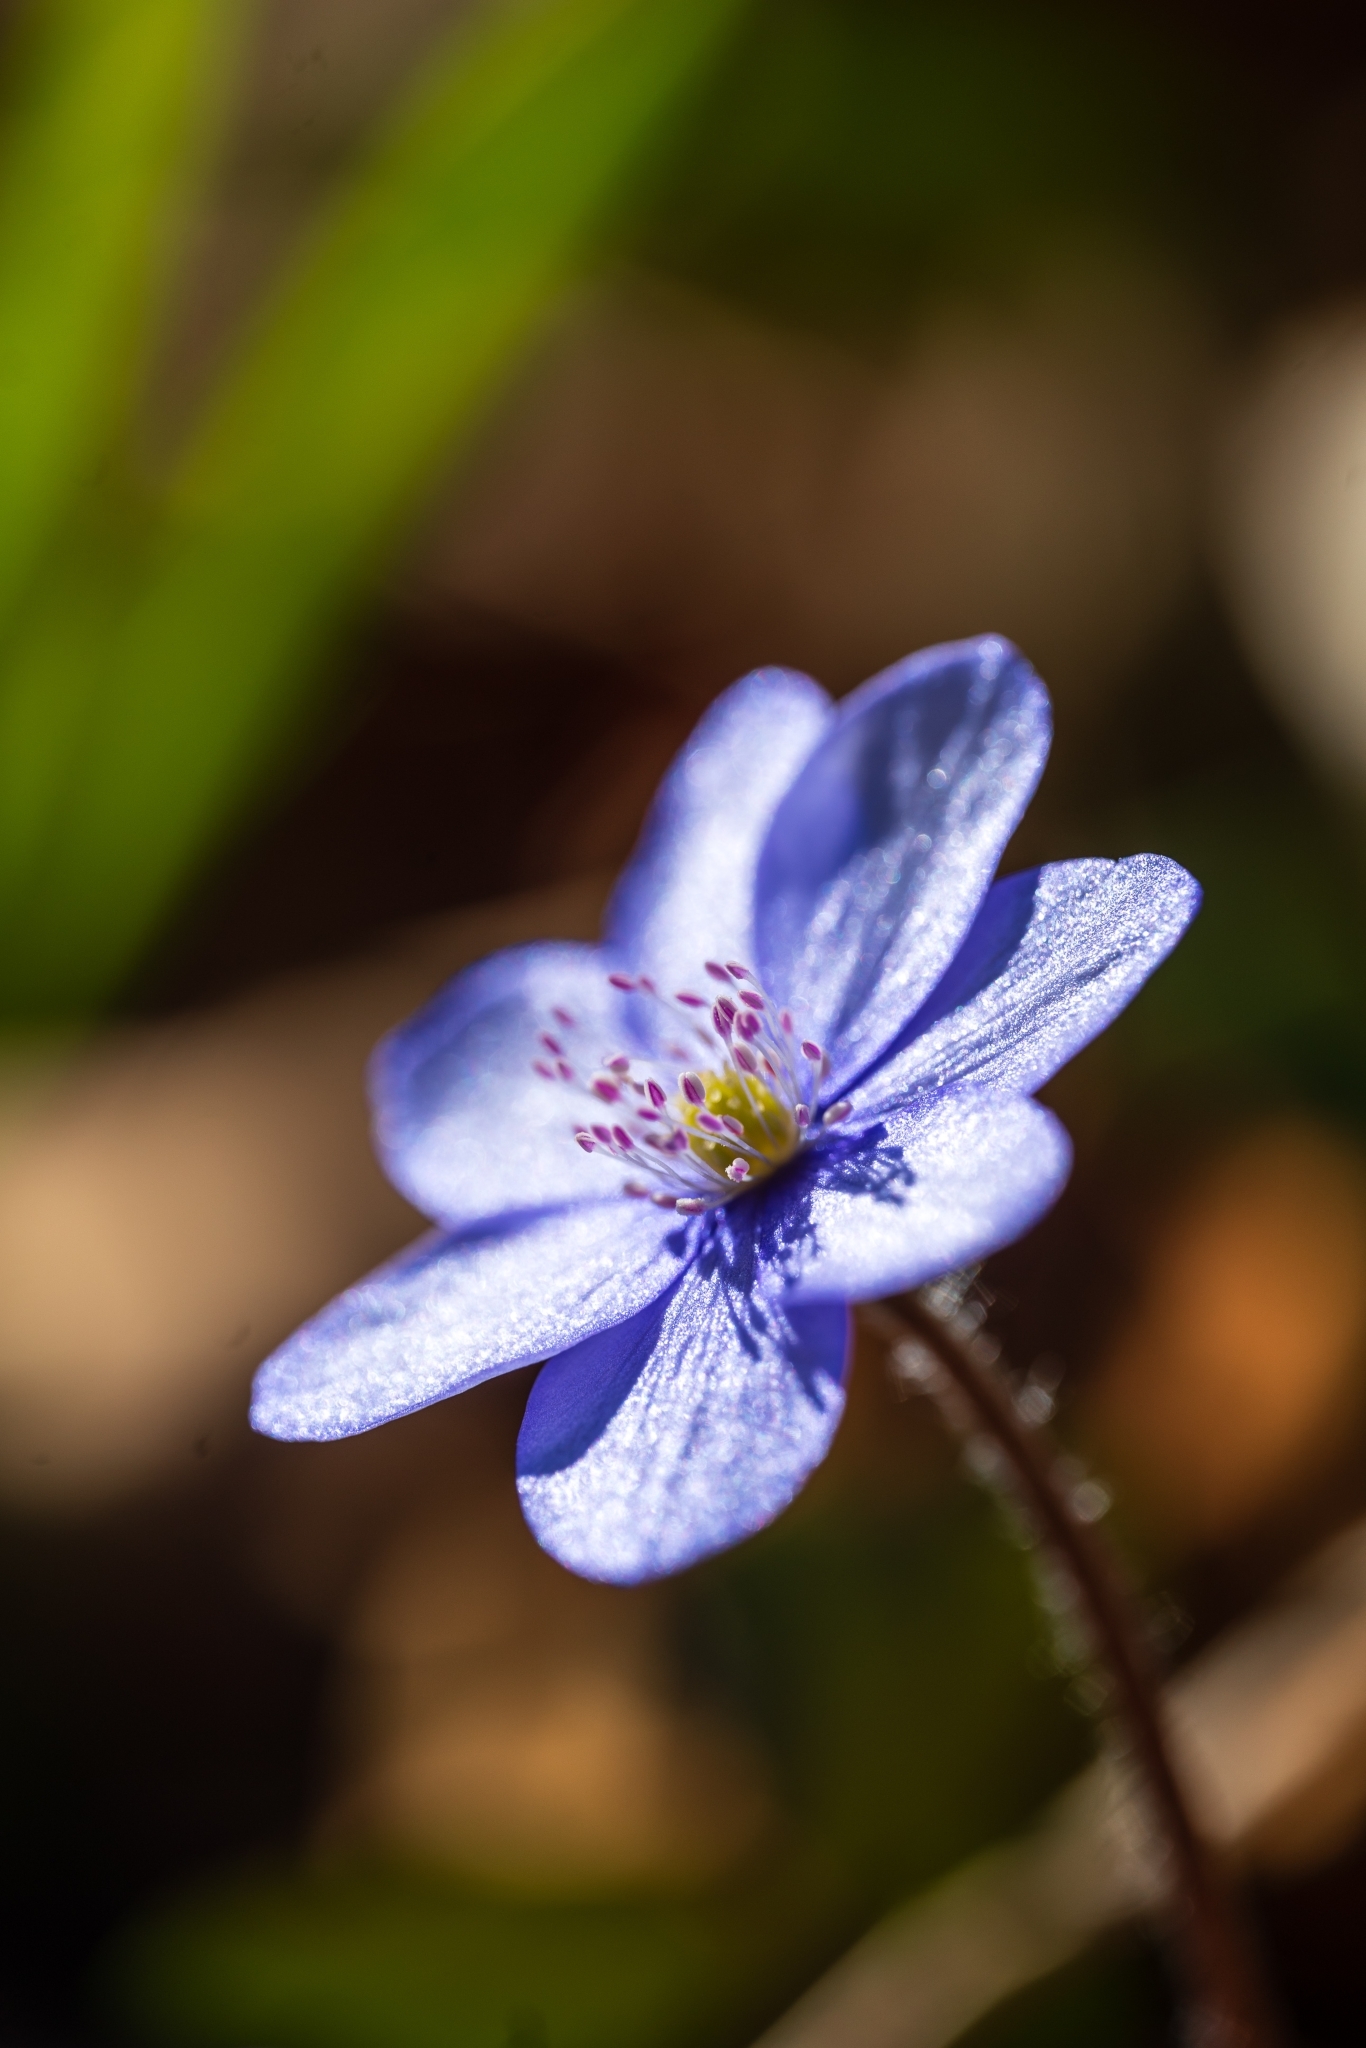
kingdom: Plantae
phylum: Tracheophyta
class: Magnoliopsida
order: Ranunculales
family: Ranunculaceae
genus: Hepatica
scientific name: Hepatica nobilis
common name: Liverleaf
